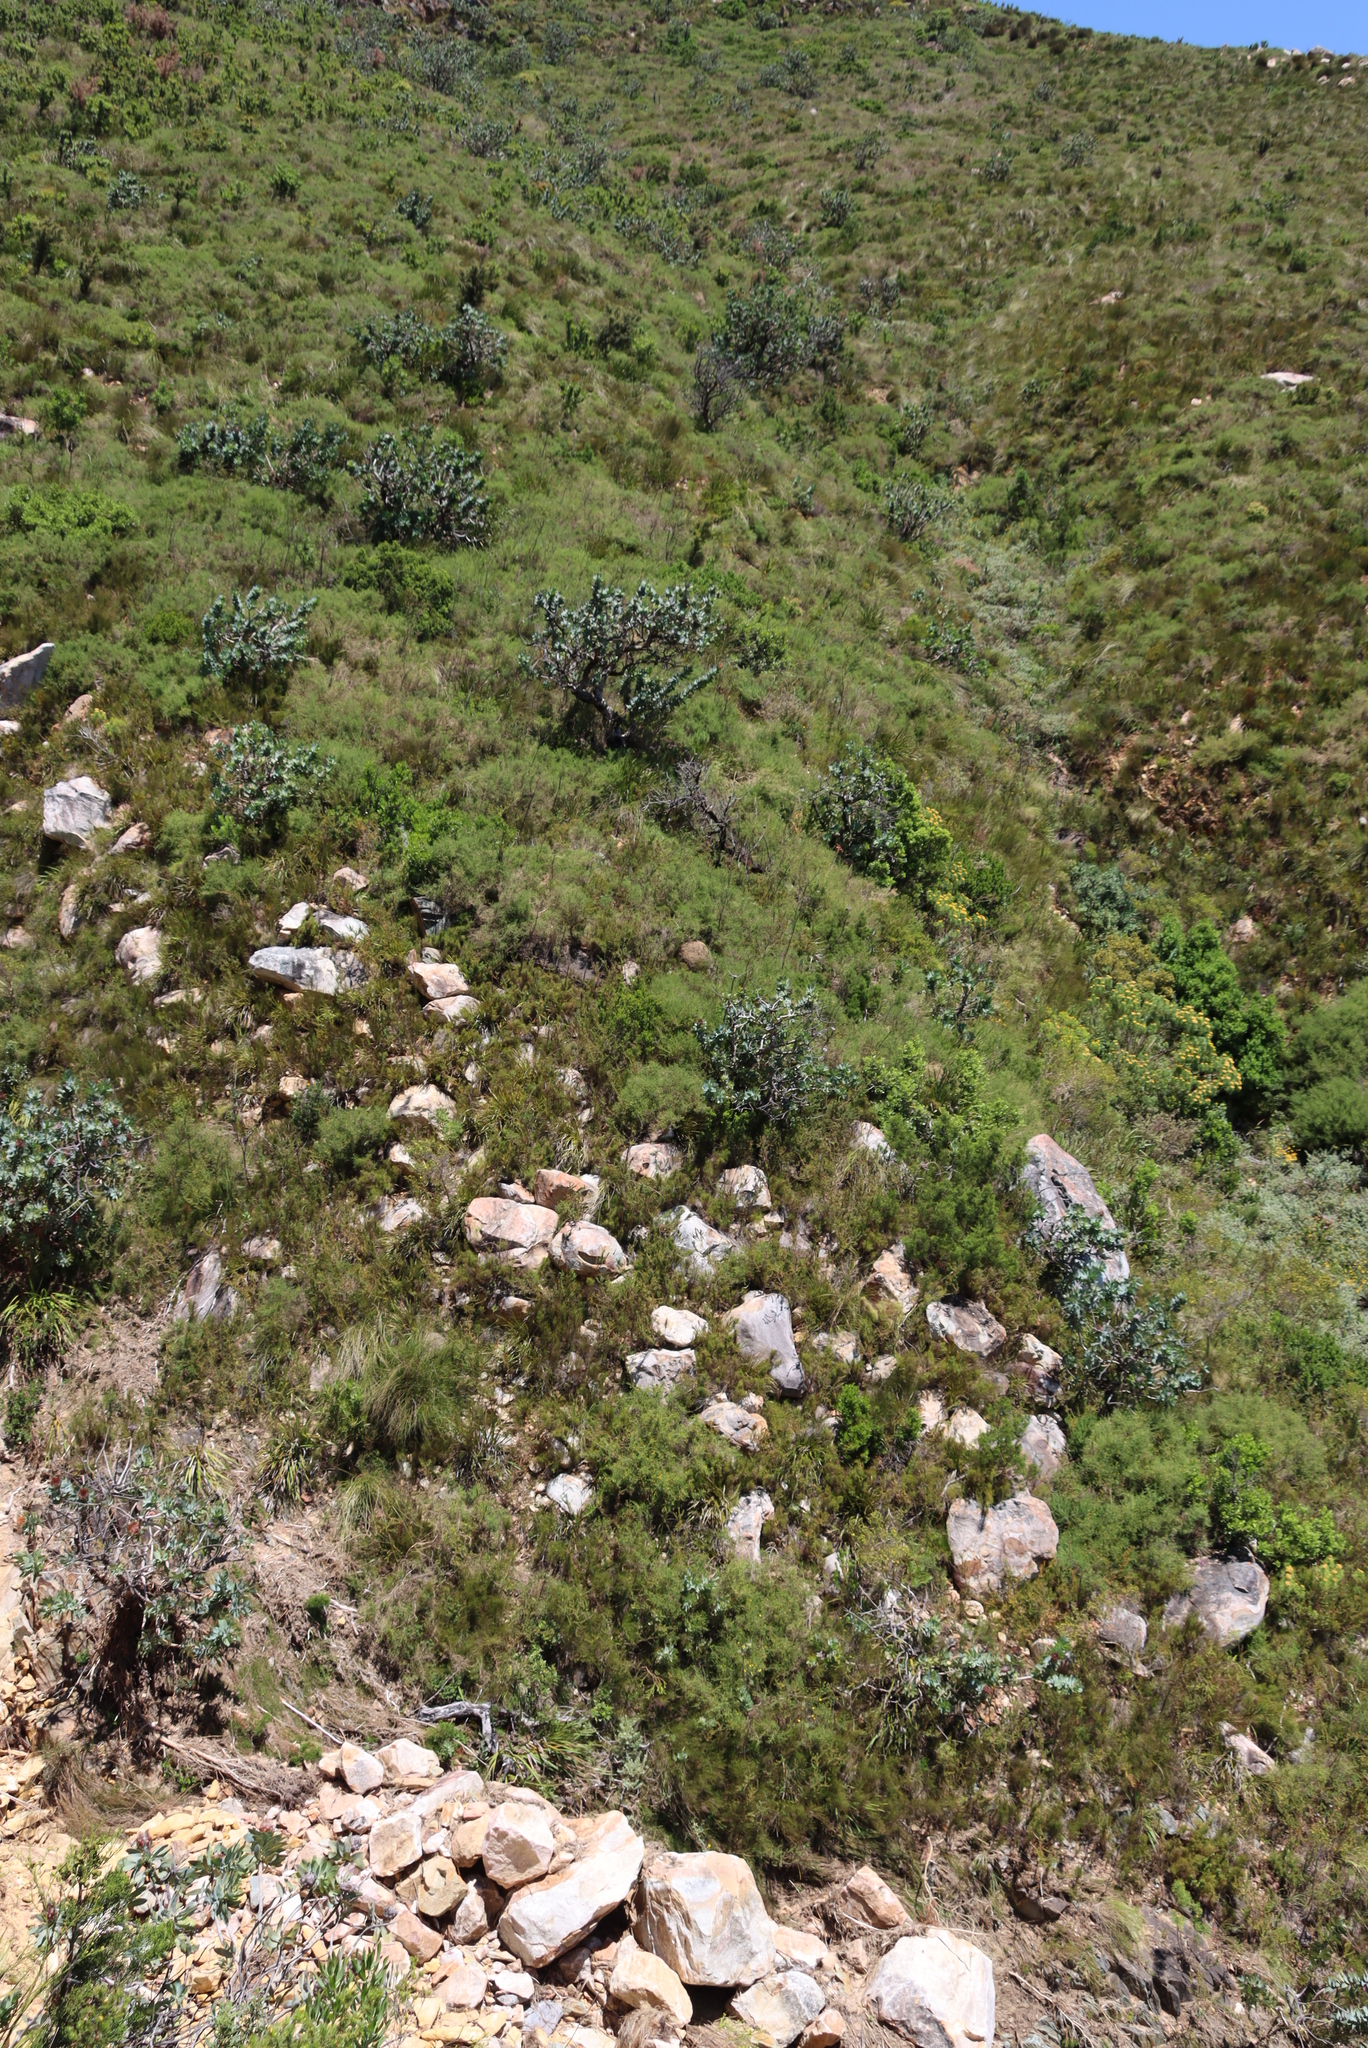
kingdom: Plantae
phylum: Tracheophyta
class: Magnoliopsida
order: Proteales
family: Proteaceae
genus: Protea
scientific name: Protea nitida
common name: Tree protea
